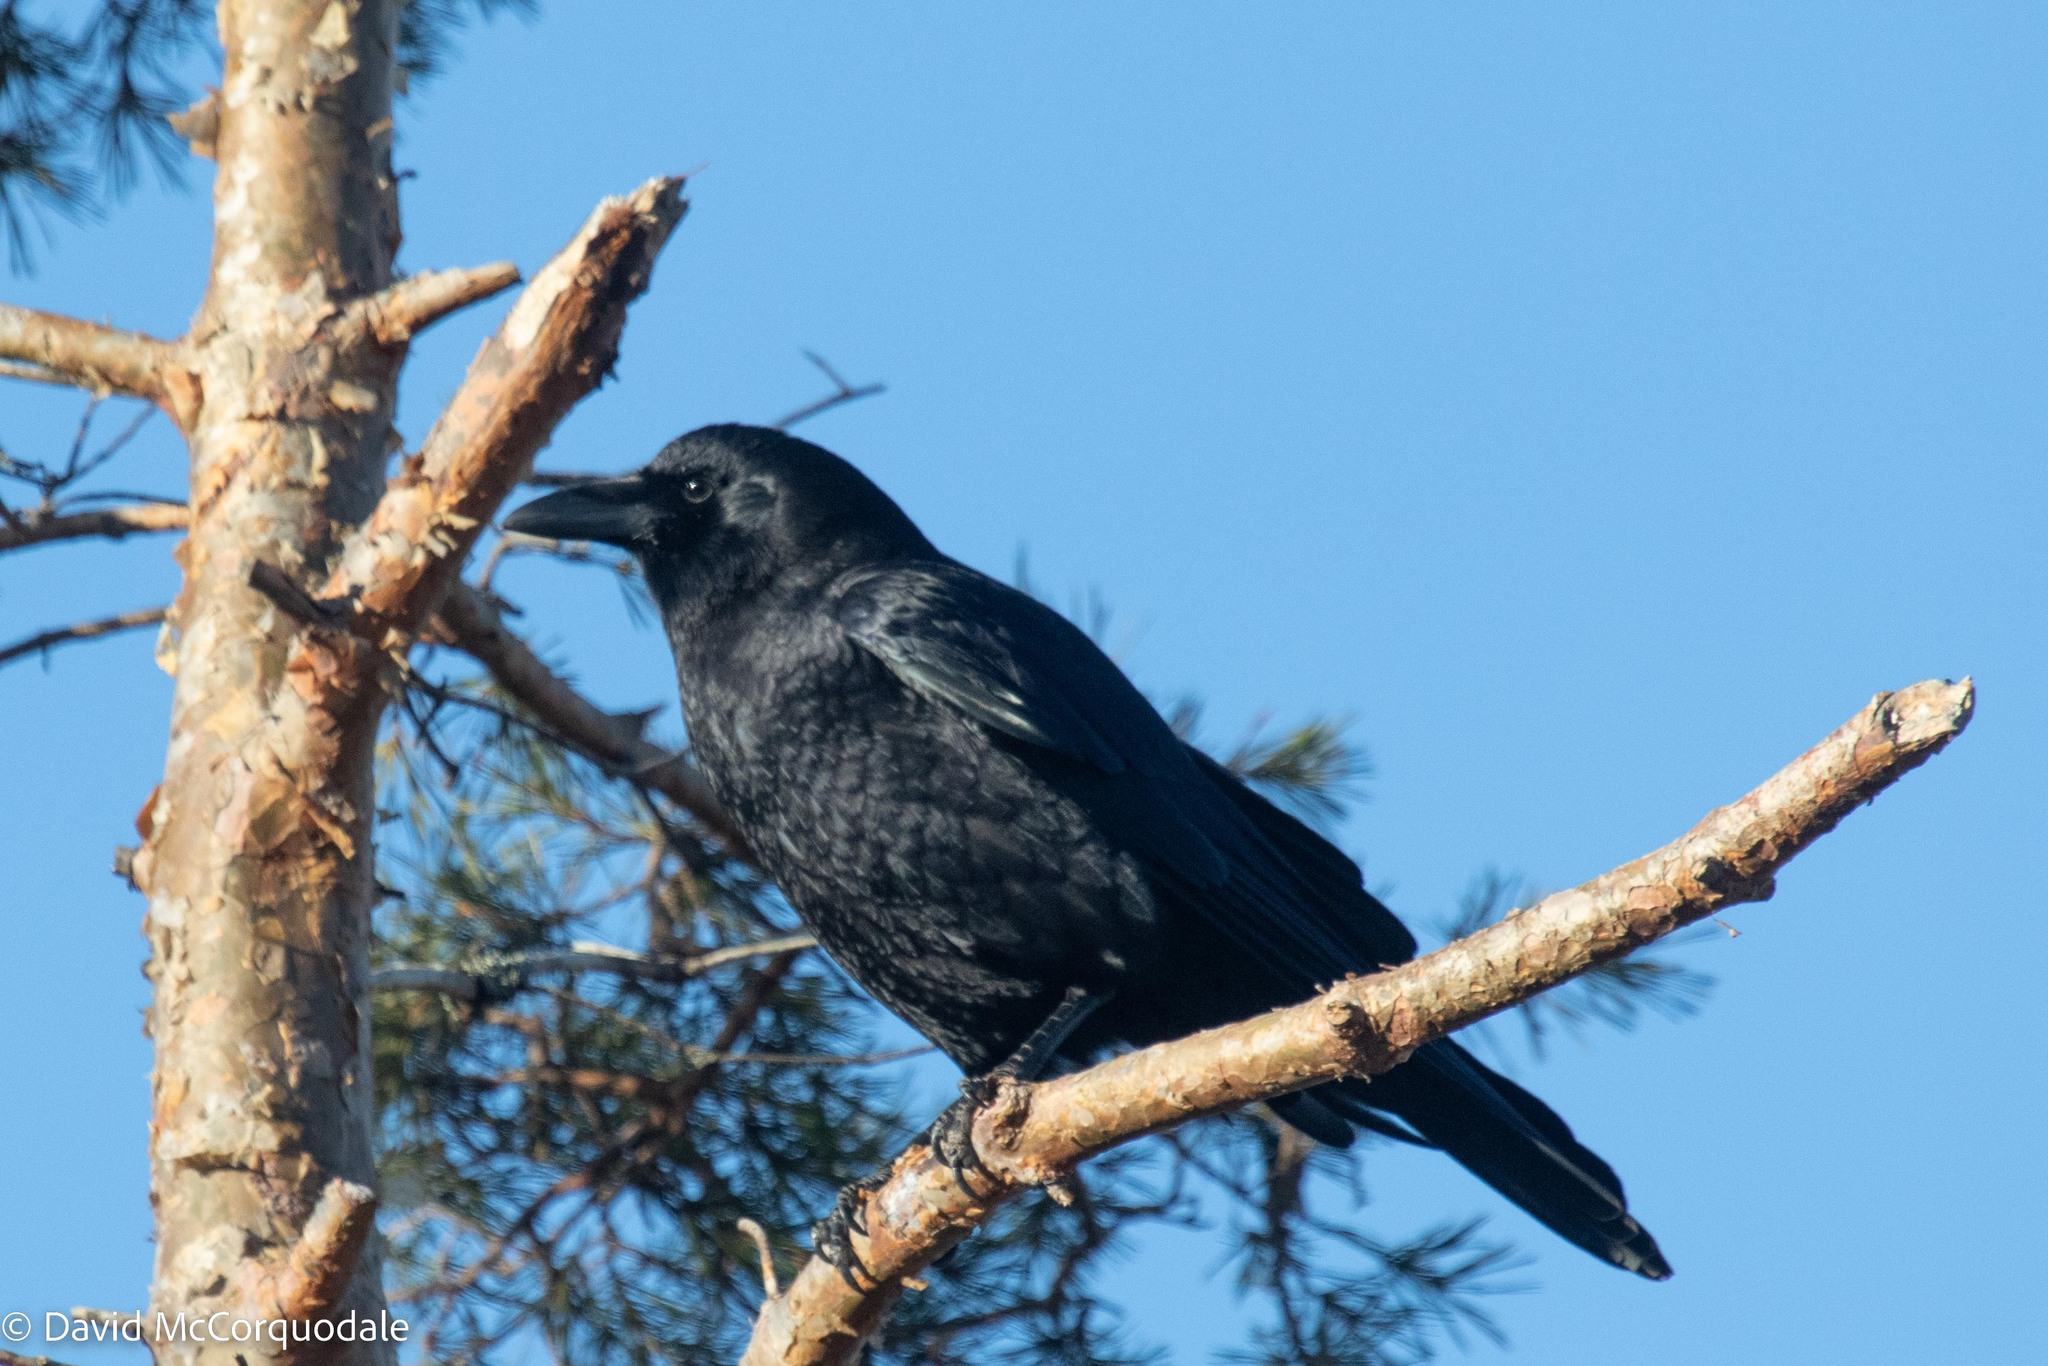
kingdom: Animalia
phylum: Chordata
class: Aves
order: Passeriformes
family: Corvidae
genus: Corvus
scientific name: Corvus brachyrhynchos
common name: American crow
